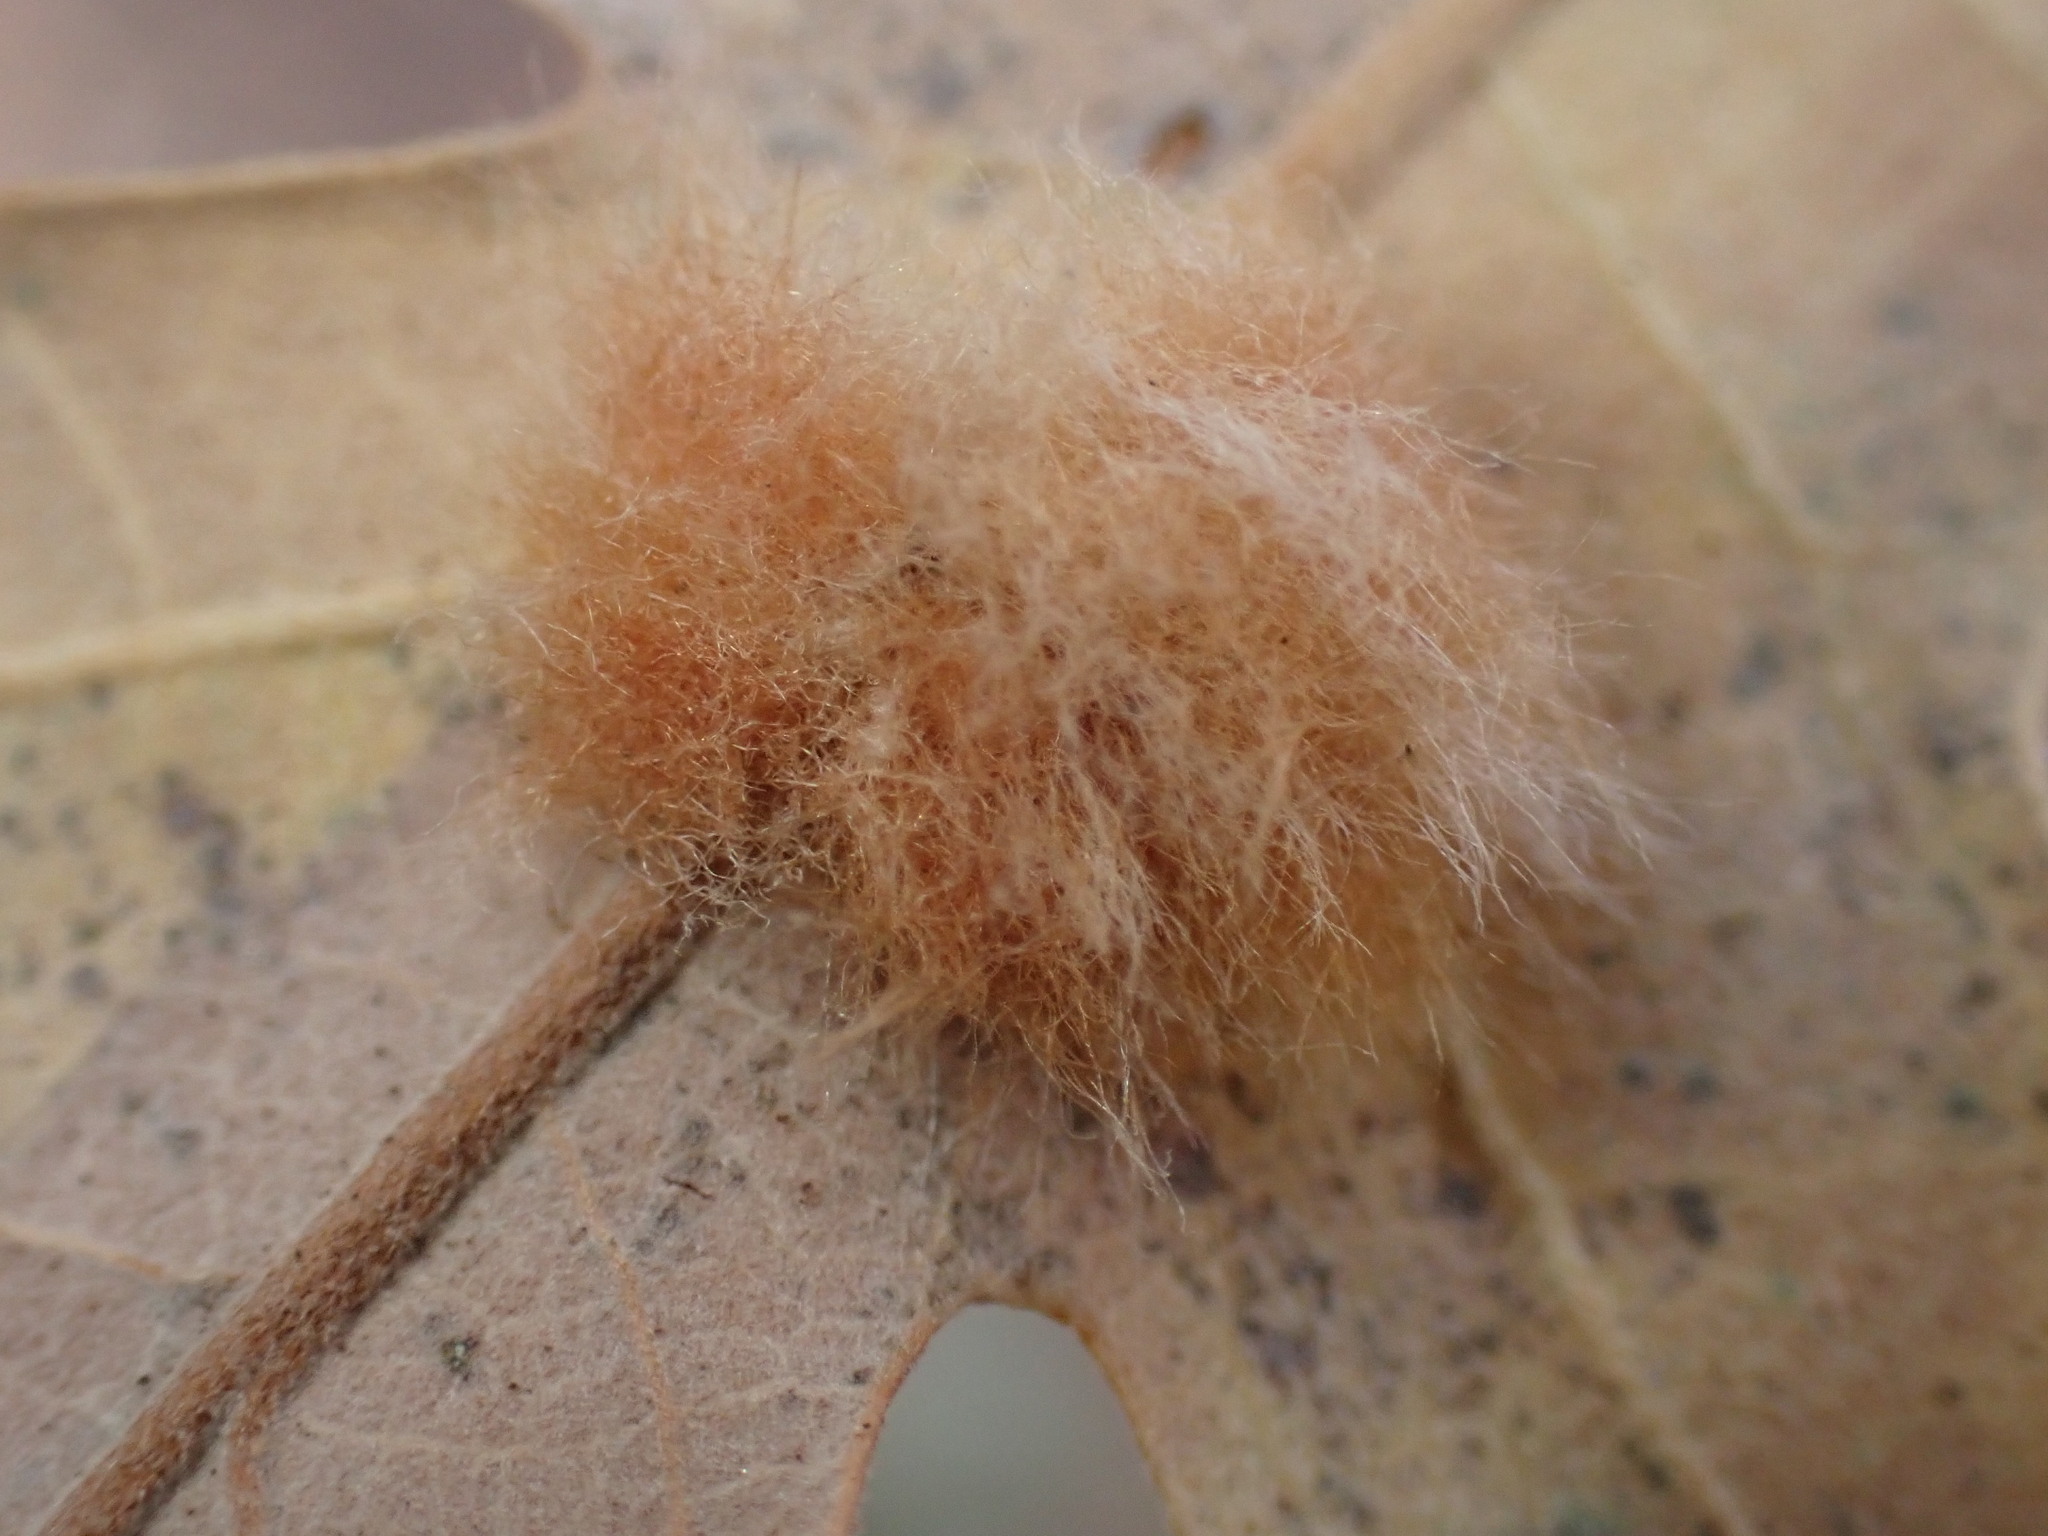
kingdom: Animalia
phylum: Arthropoda
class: Insecta
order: Hymenoptera
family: Cynipidae
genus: Andricus
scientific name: Andricus Druon fullawayi
